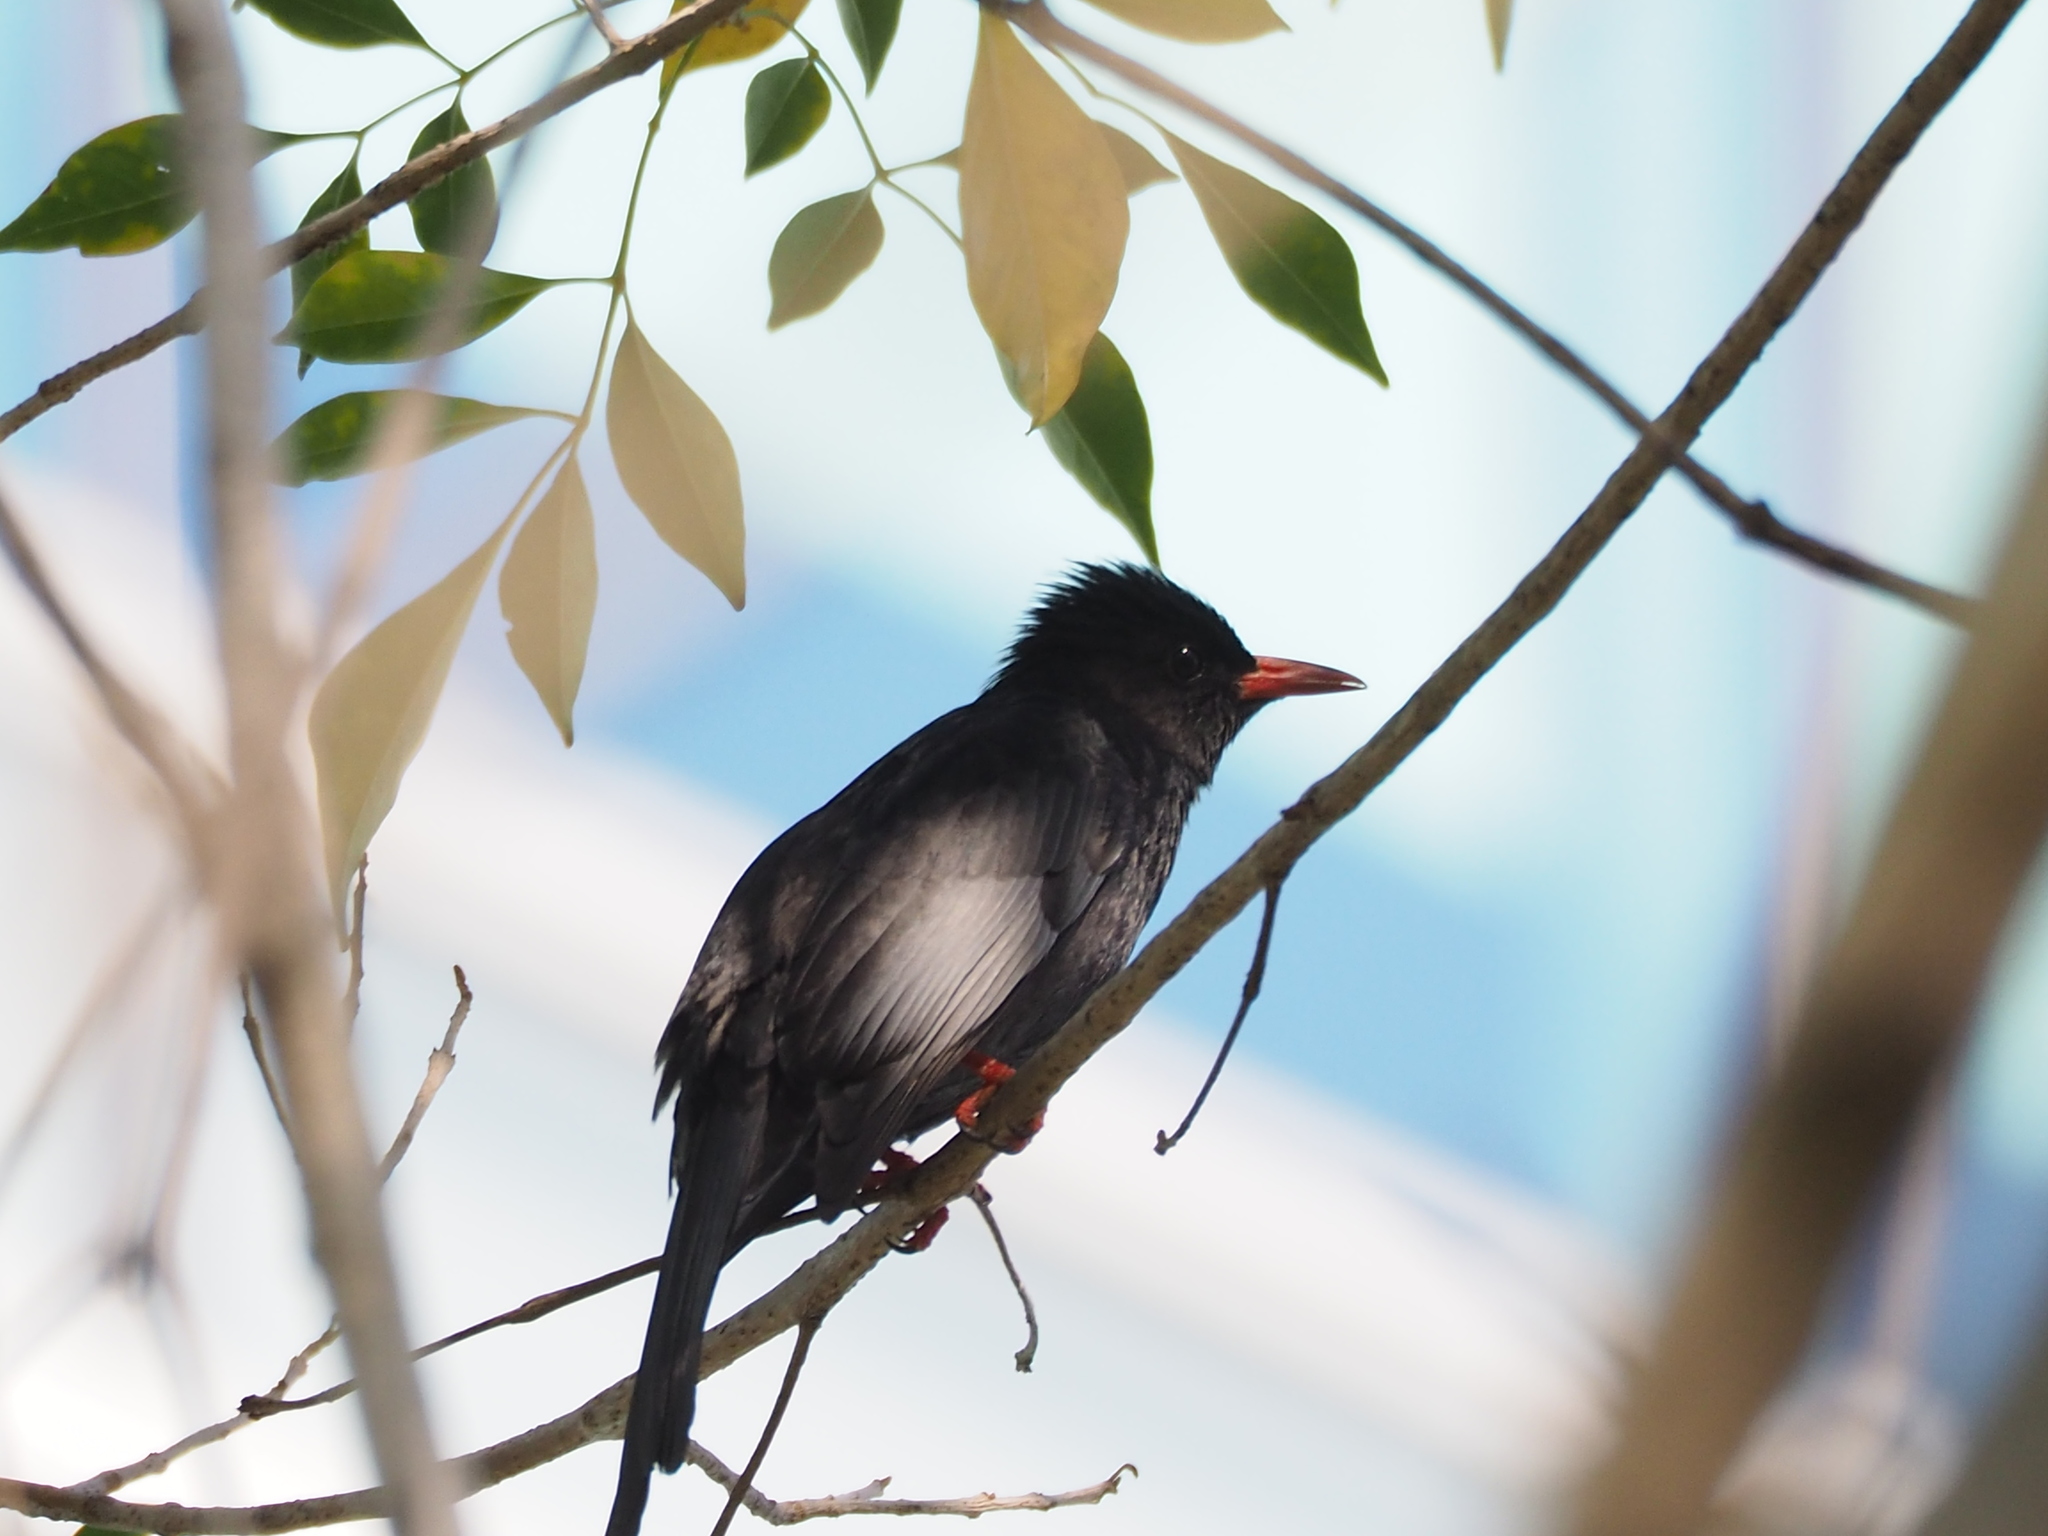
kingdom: Animalia
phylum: Chordata
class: Aves
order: Passeriformes
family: Pycnonotidae
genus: Hypsipetes
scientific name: Hypsipetes leucocephalus
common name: Black bulbul
